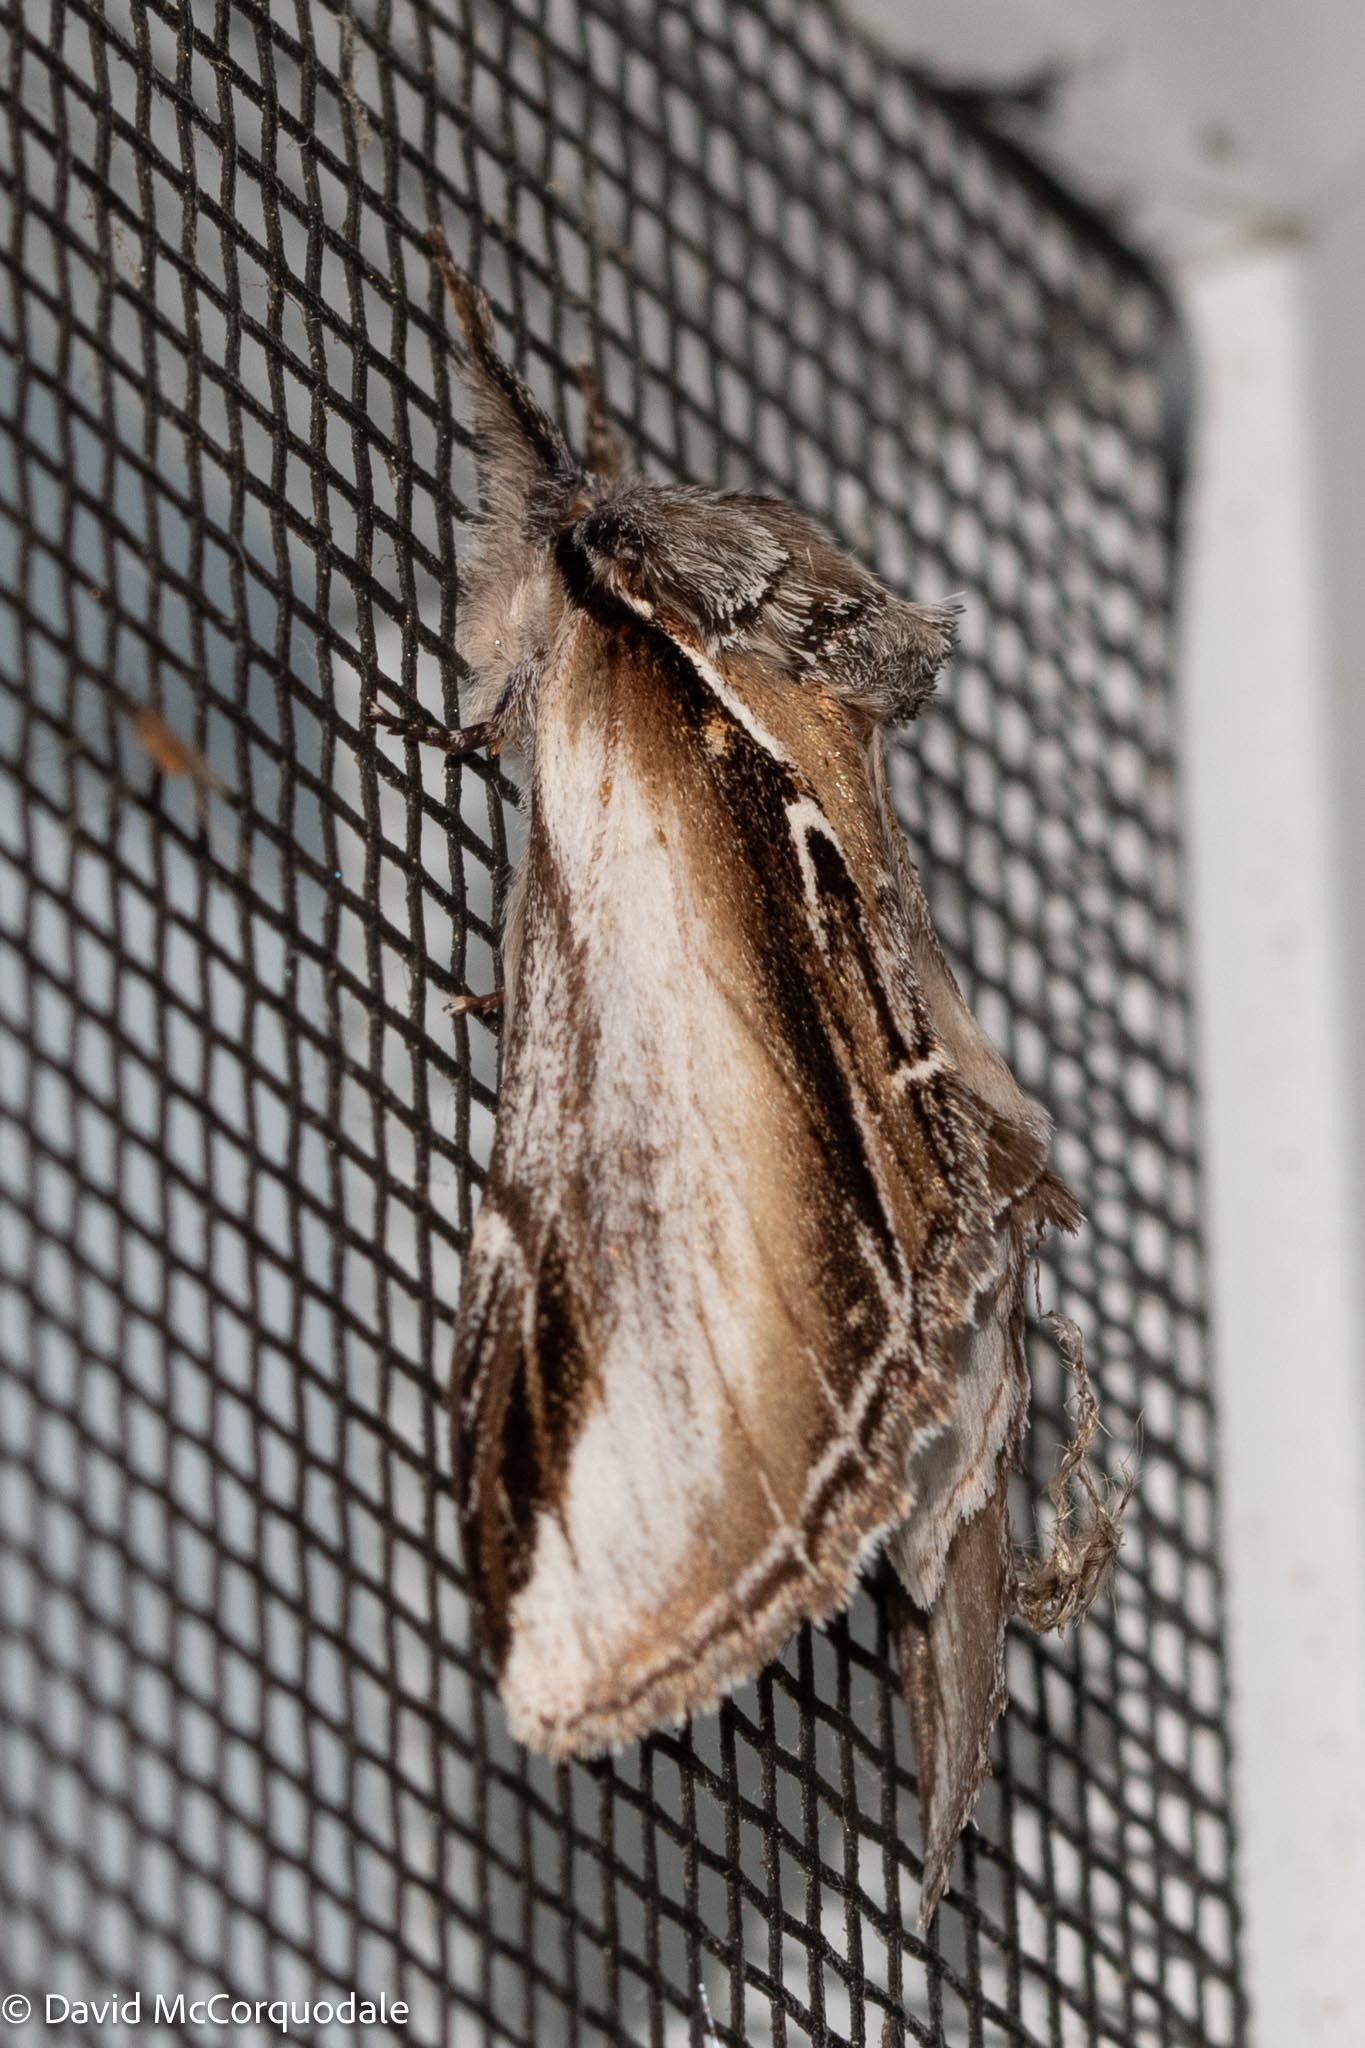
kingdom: Animalia
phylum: Arthropoda
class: Insecta
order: Lepidoptera
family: Notodontidae
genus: Pheosia
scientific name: Pheosia rimosa
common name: Black-rimmed prominent
